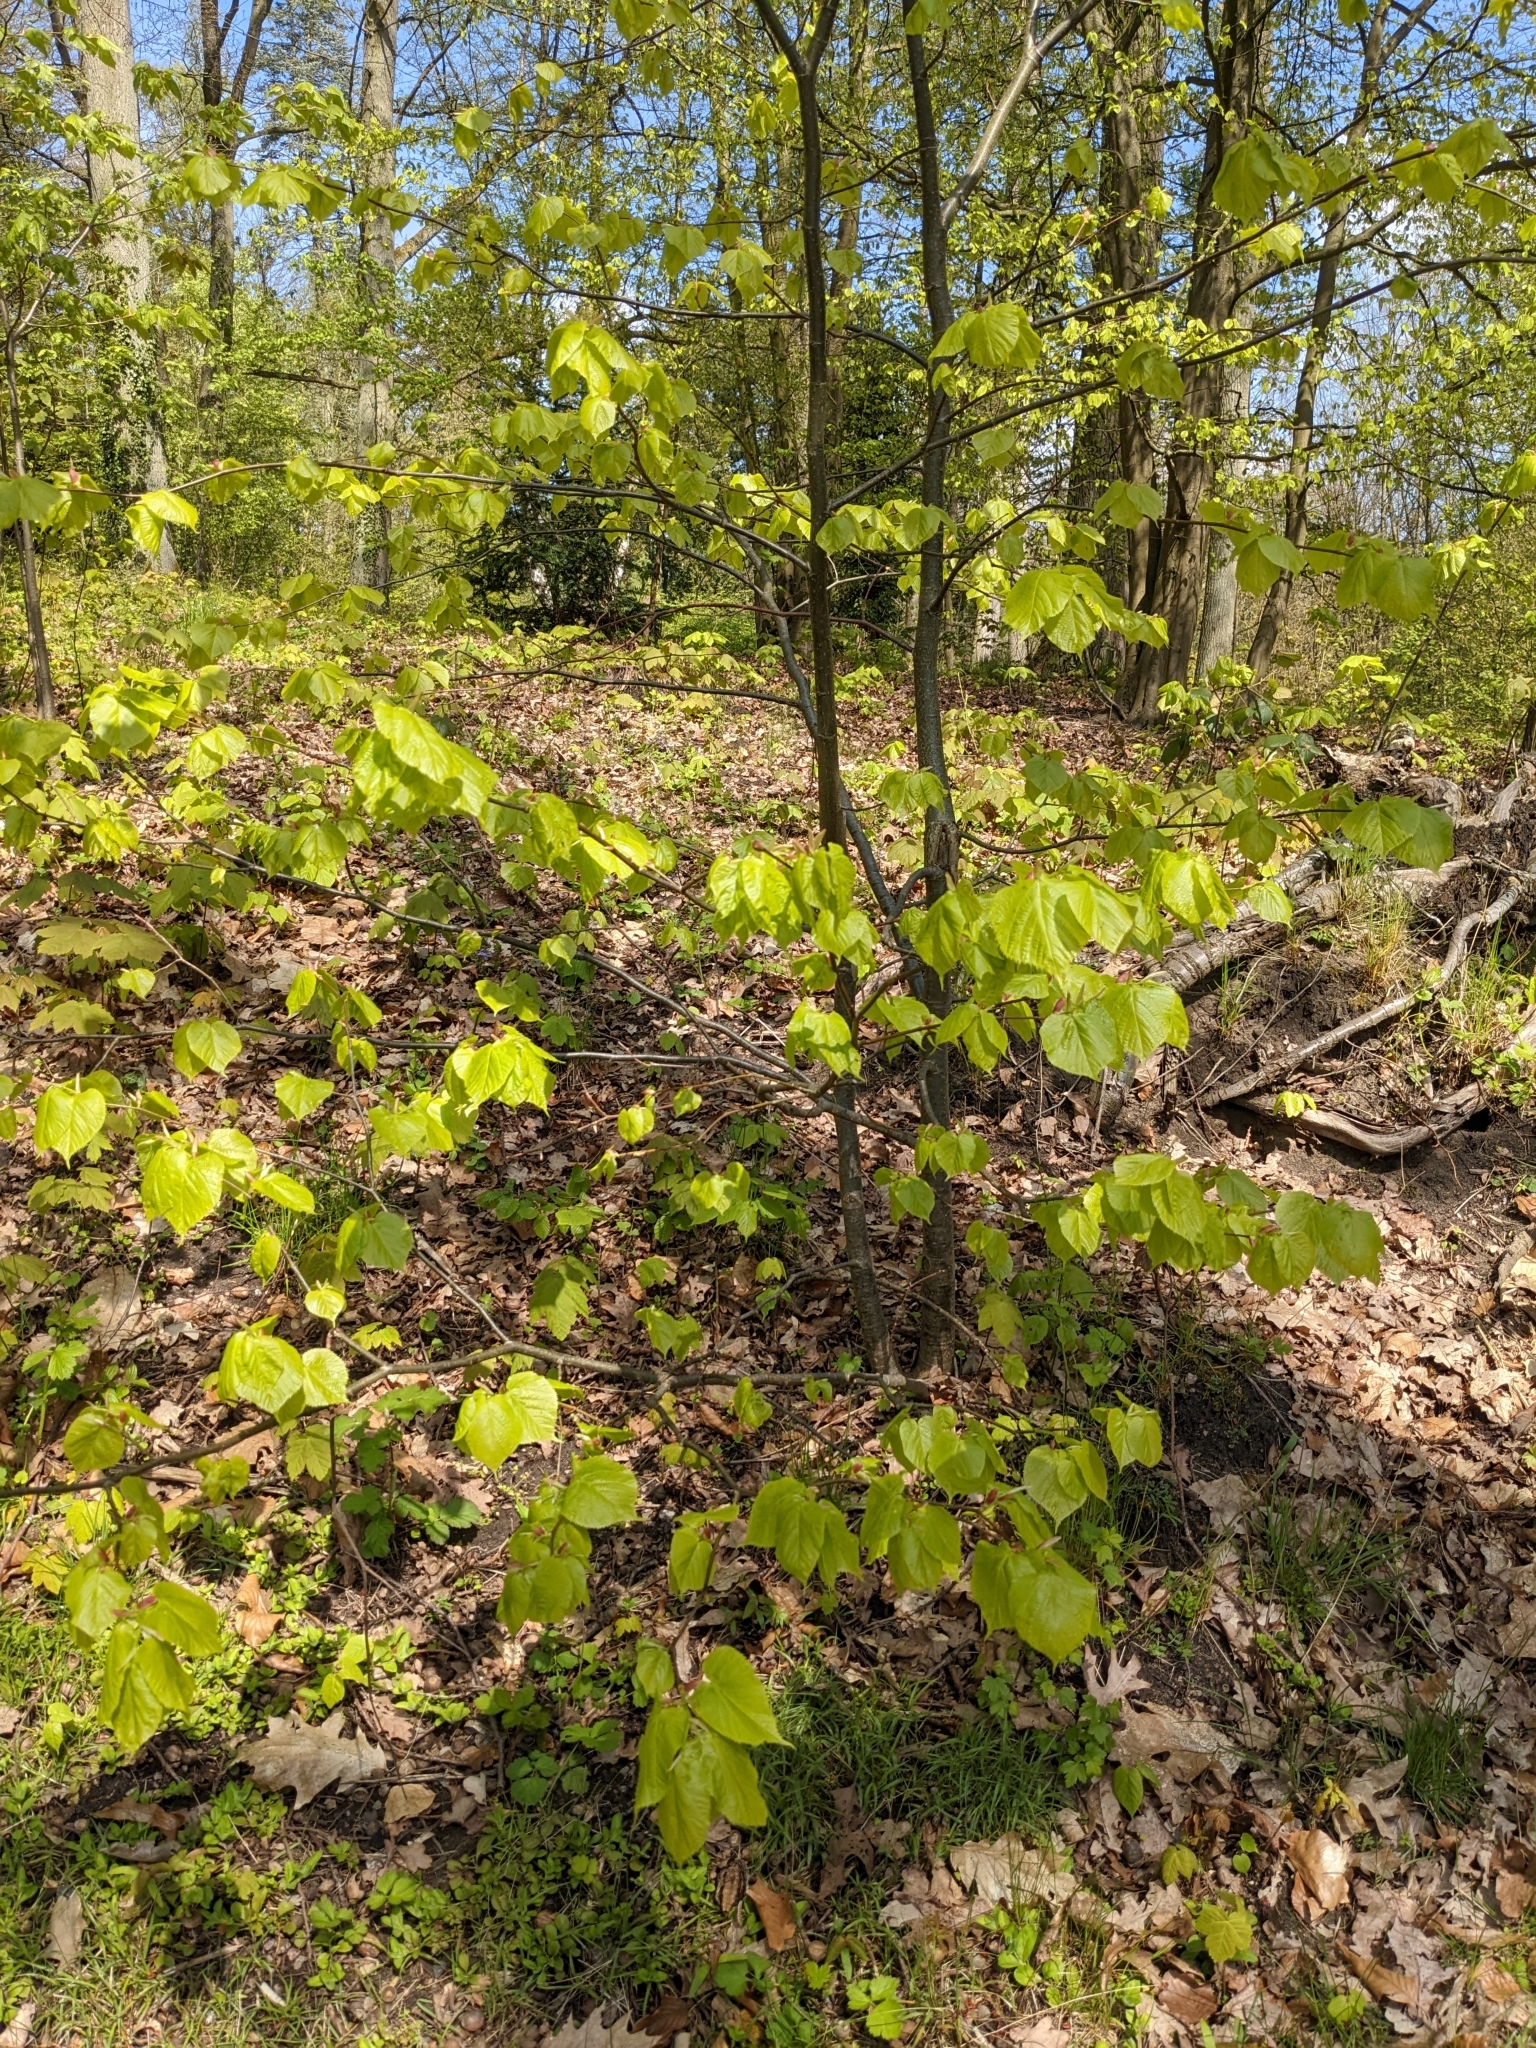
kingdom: Plantae
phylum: Tracheophyta
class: Magnoliopsida
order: Malvales
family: Malvaceae
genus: Tilia
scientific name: Tilia platyphyllos
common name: Large-leaved lime
